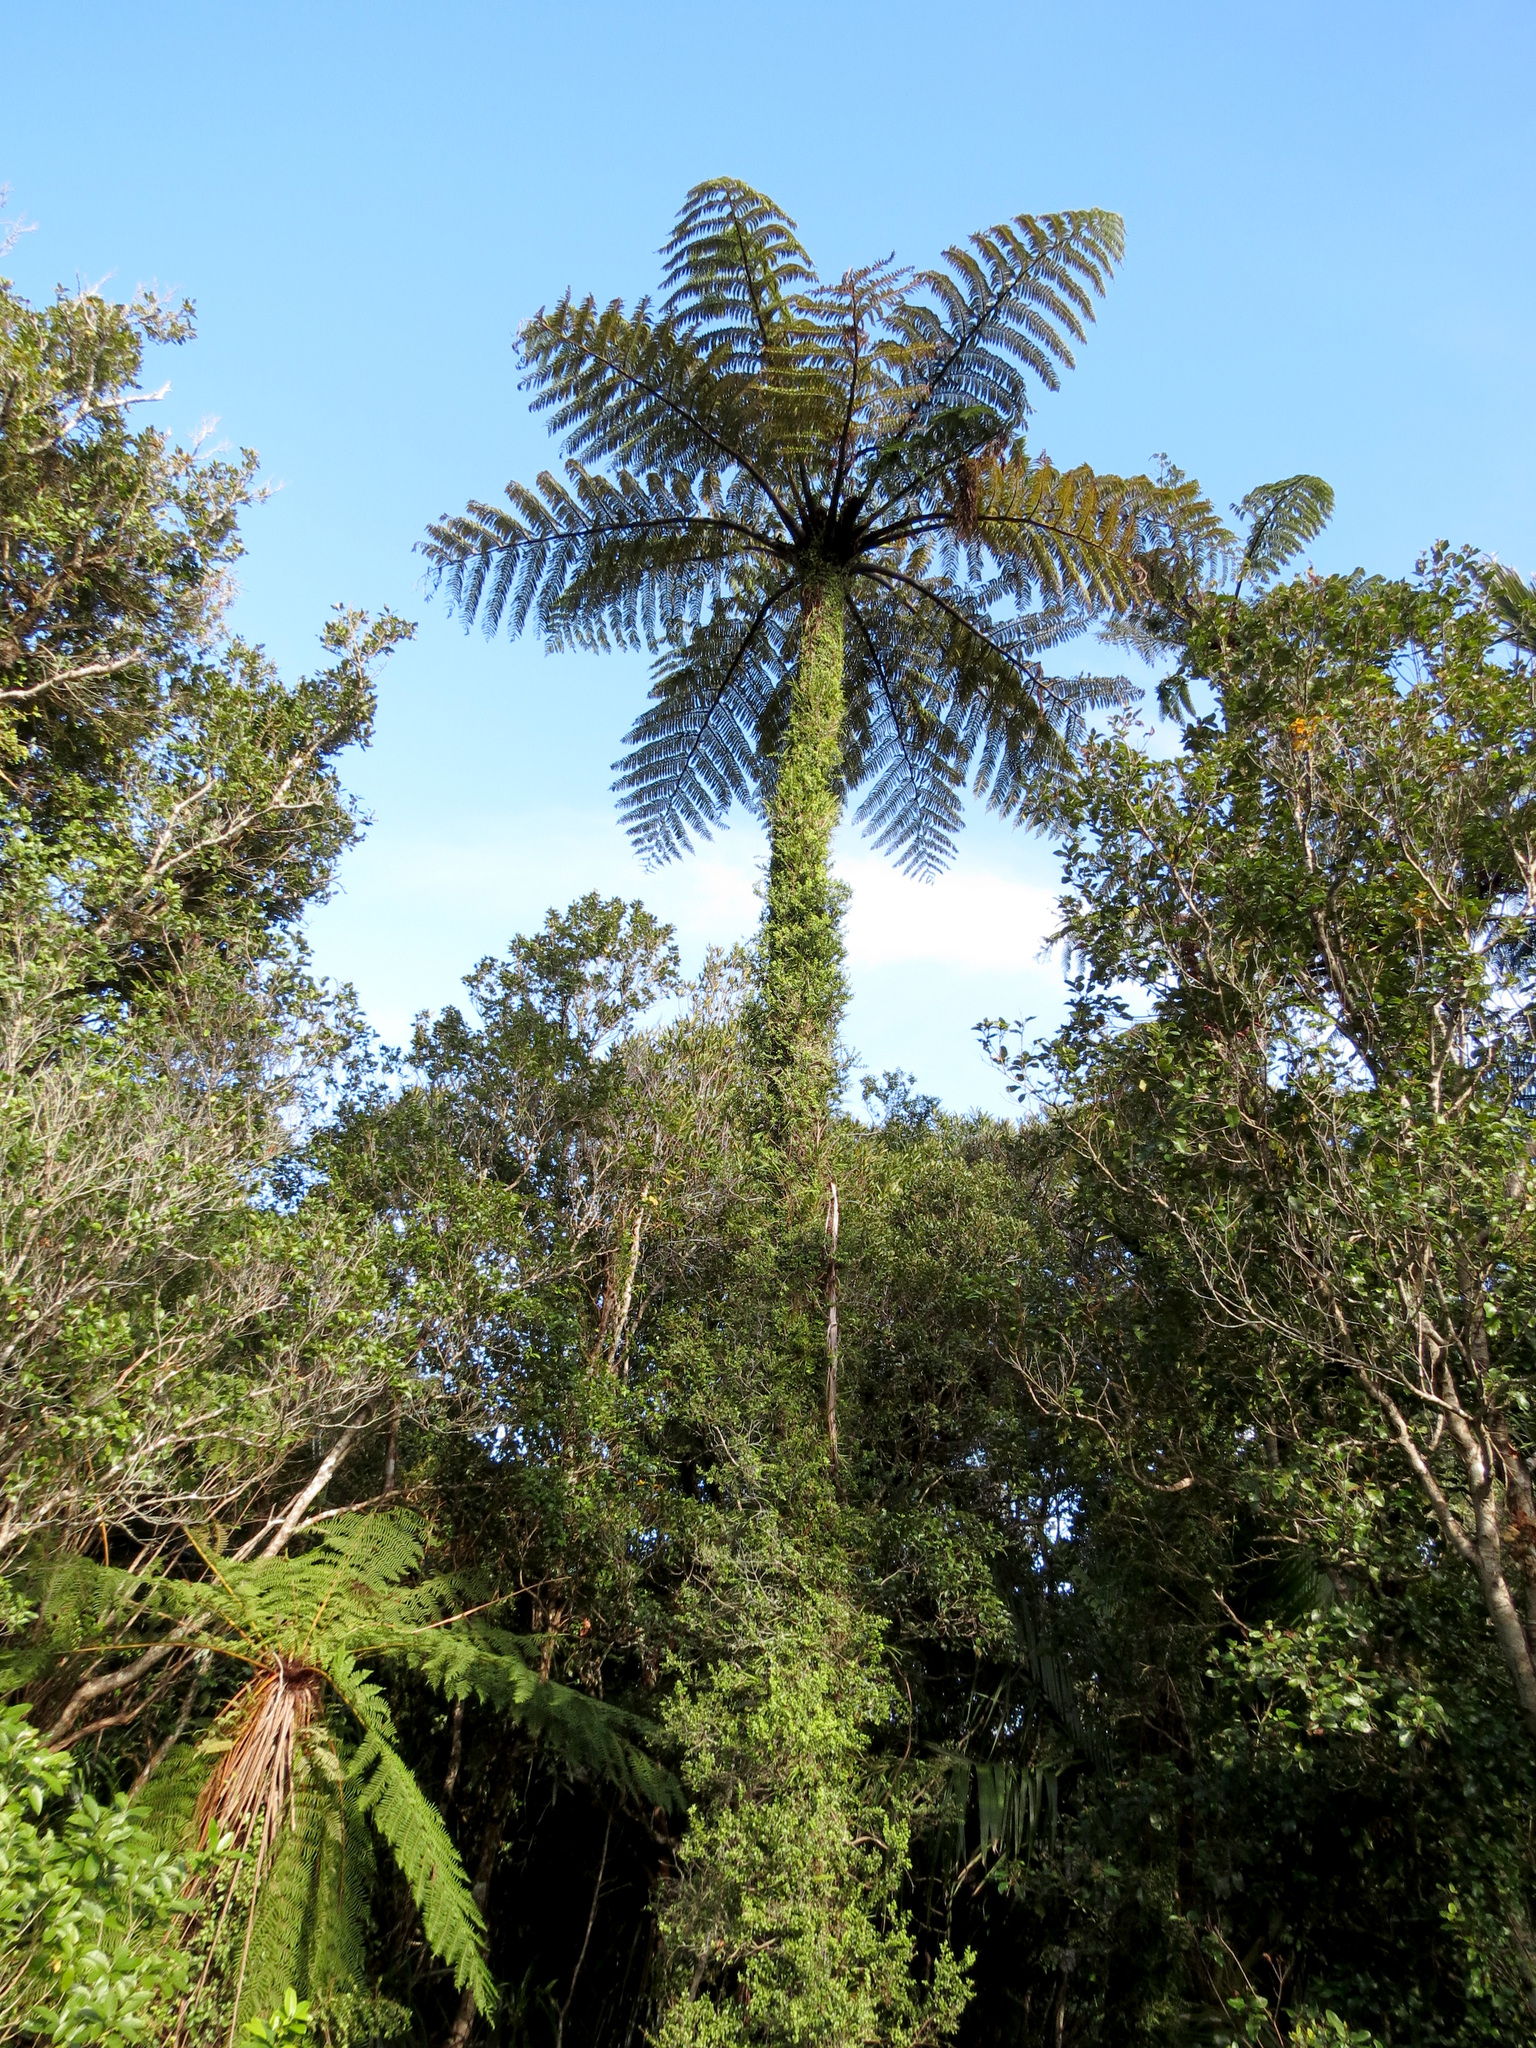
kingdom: Plantae
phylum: Tracheophyta
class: Polypodiopsida
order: Cyatheales
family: Cyatheaceae
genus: Sphaeropteris
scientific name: Sphaeropteris medullaris
